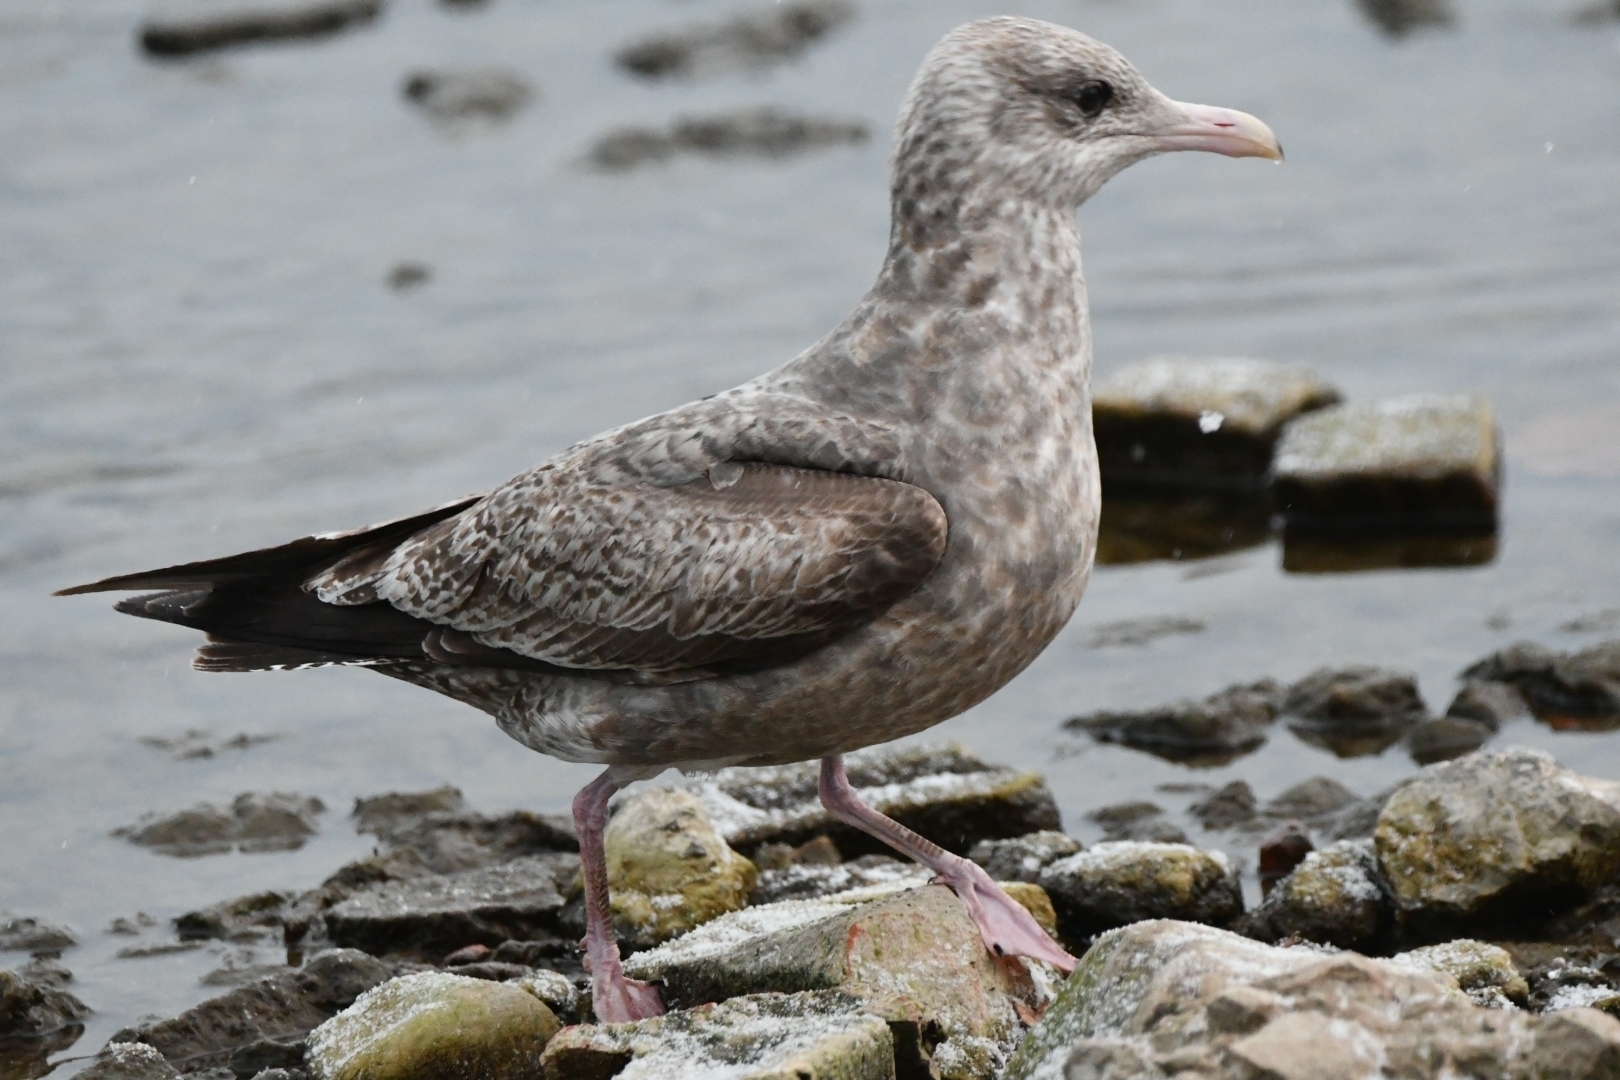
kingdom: Animalia
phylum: Chordata
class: Aves
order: Charadriiformes
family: Laridae
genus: Larus
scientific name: Larus argentatus
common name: Herring gull
